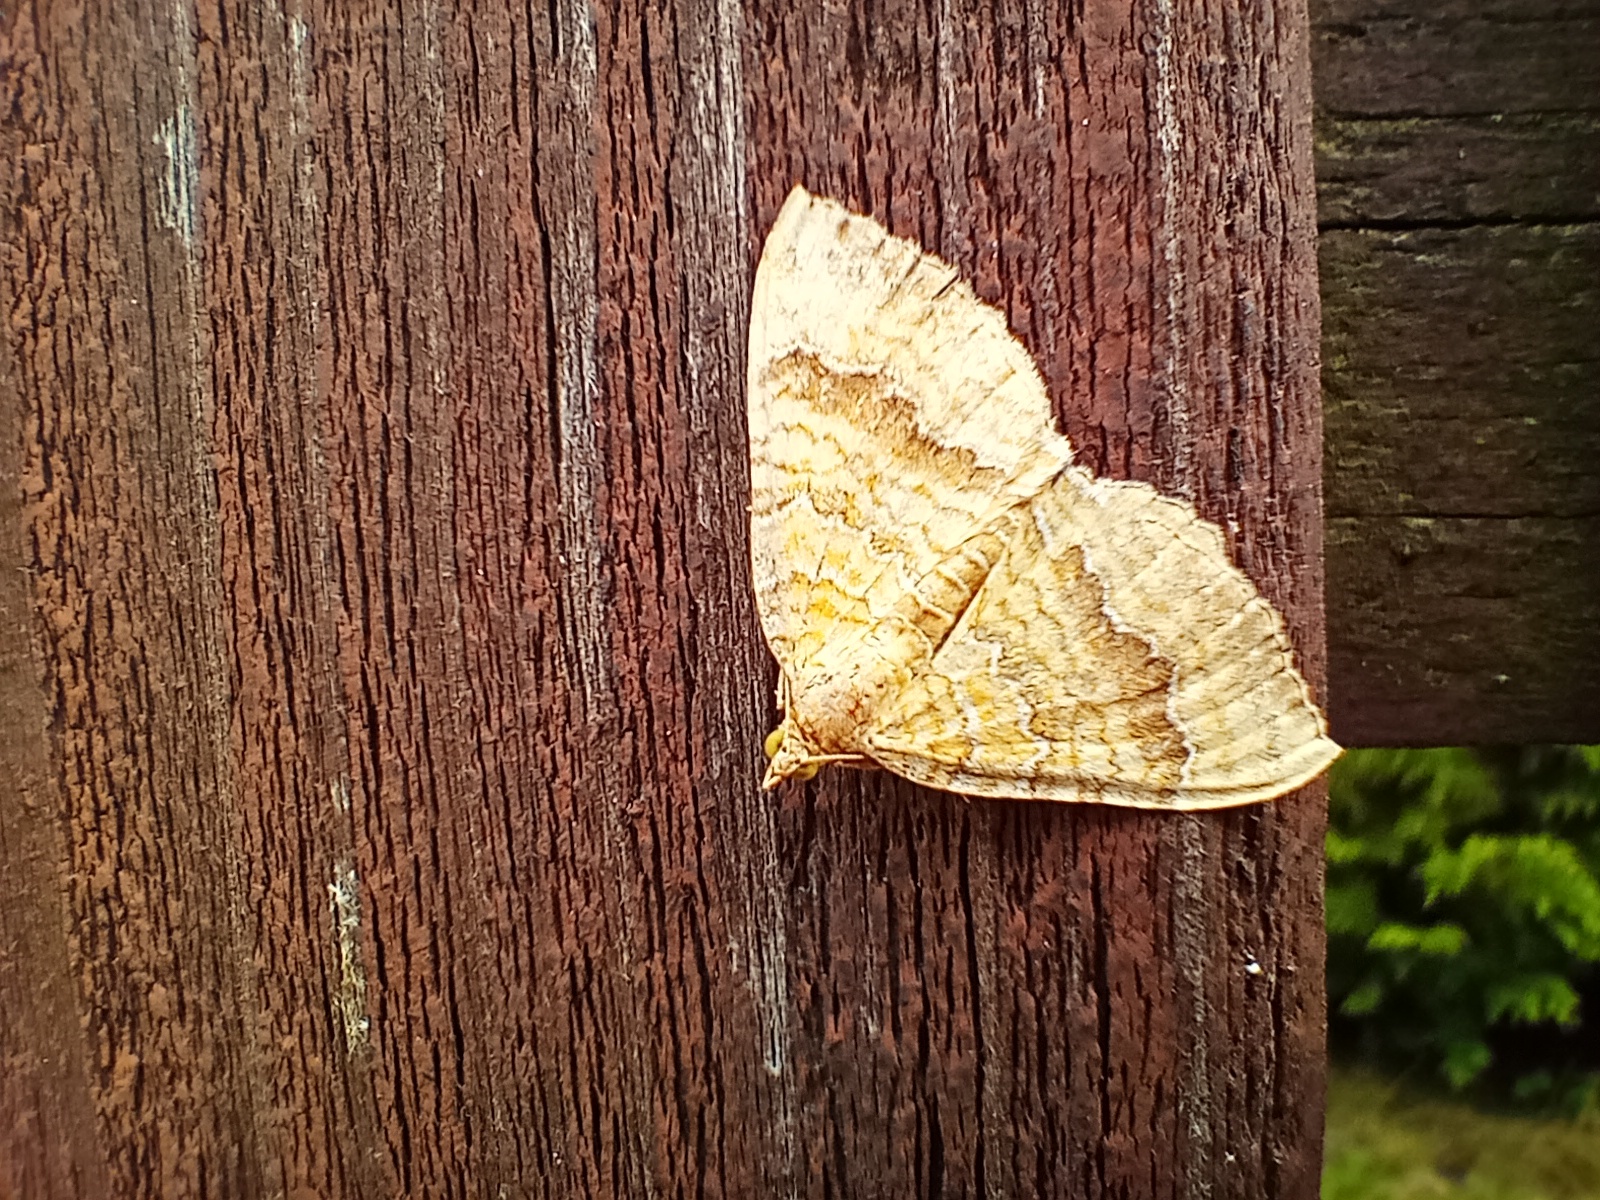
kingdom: Animalia
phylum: Arthropoda
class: Insecta
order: Lepidoptera
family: Geometridae
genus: Camptogramma
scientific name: Camptogramma bilineata
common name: Yellow shell
